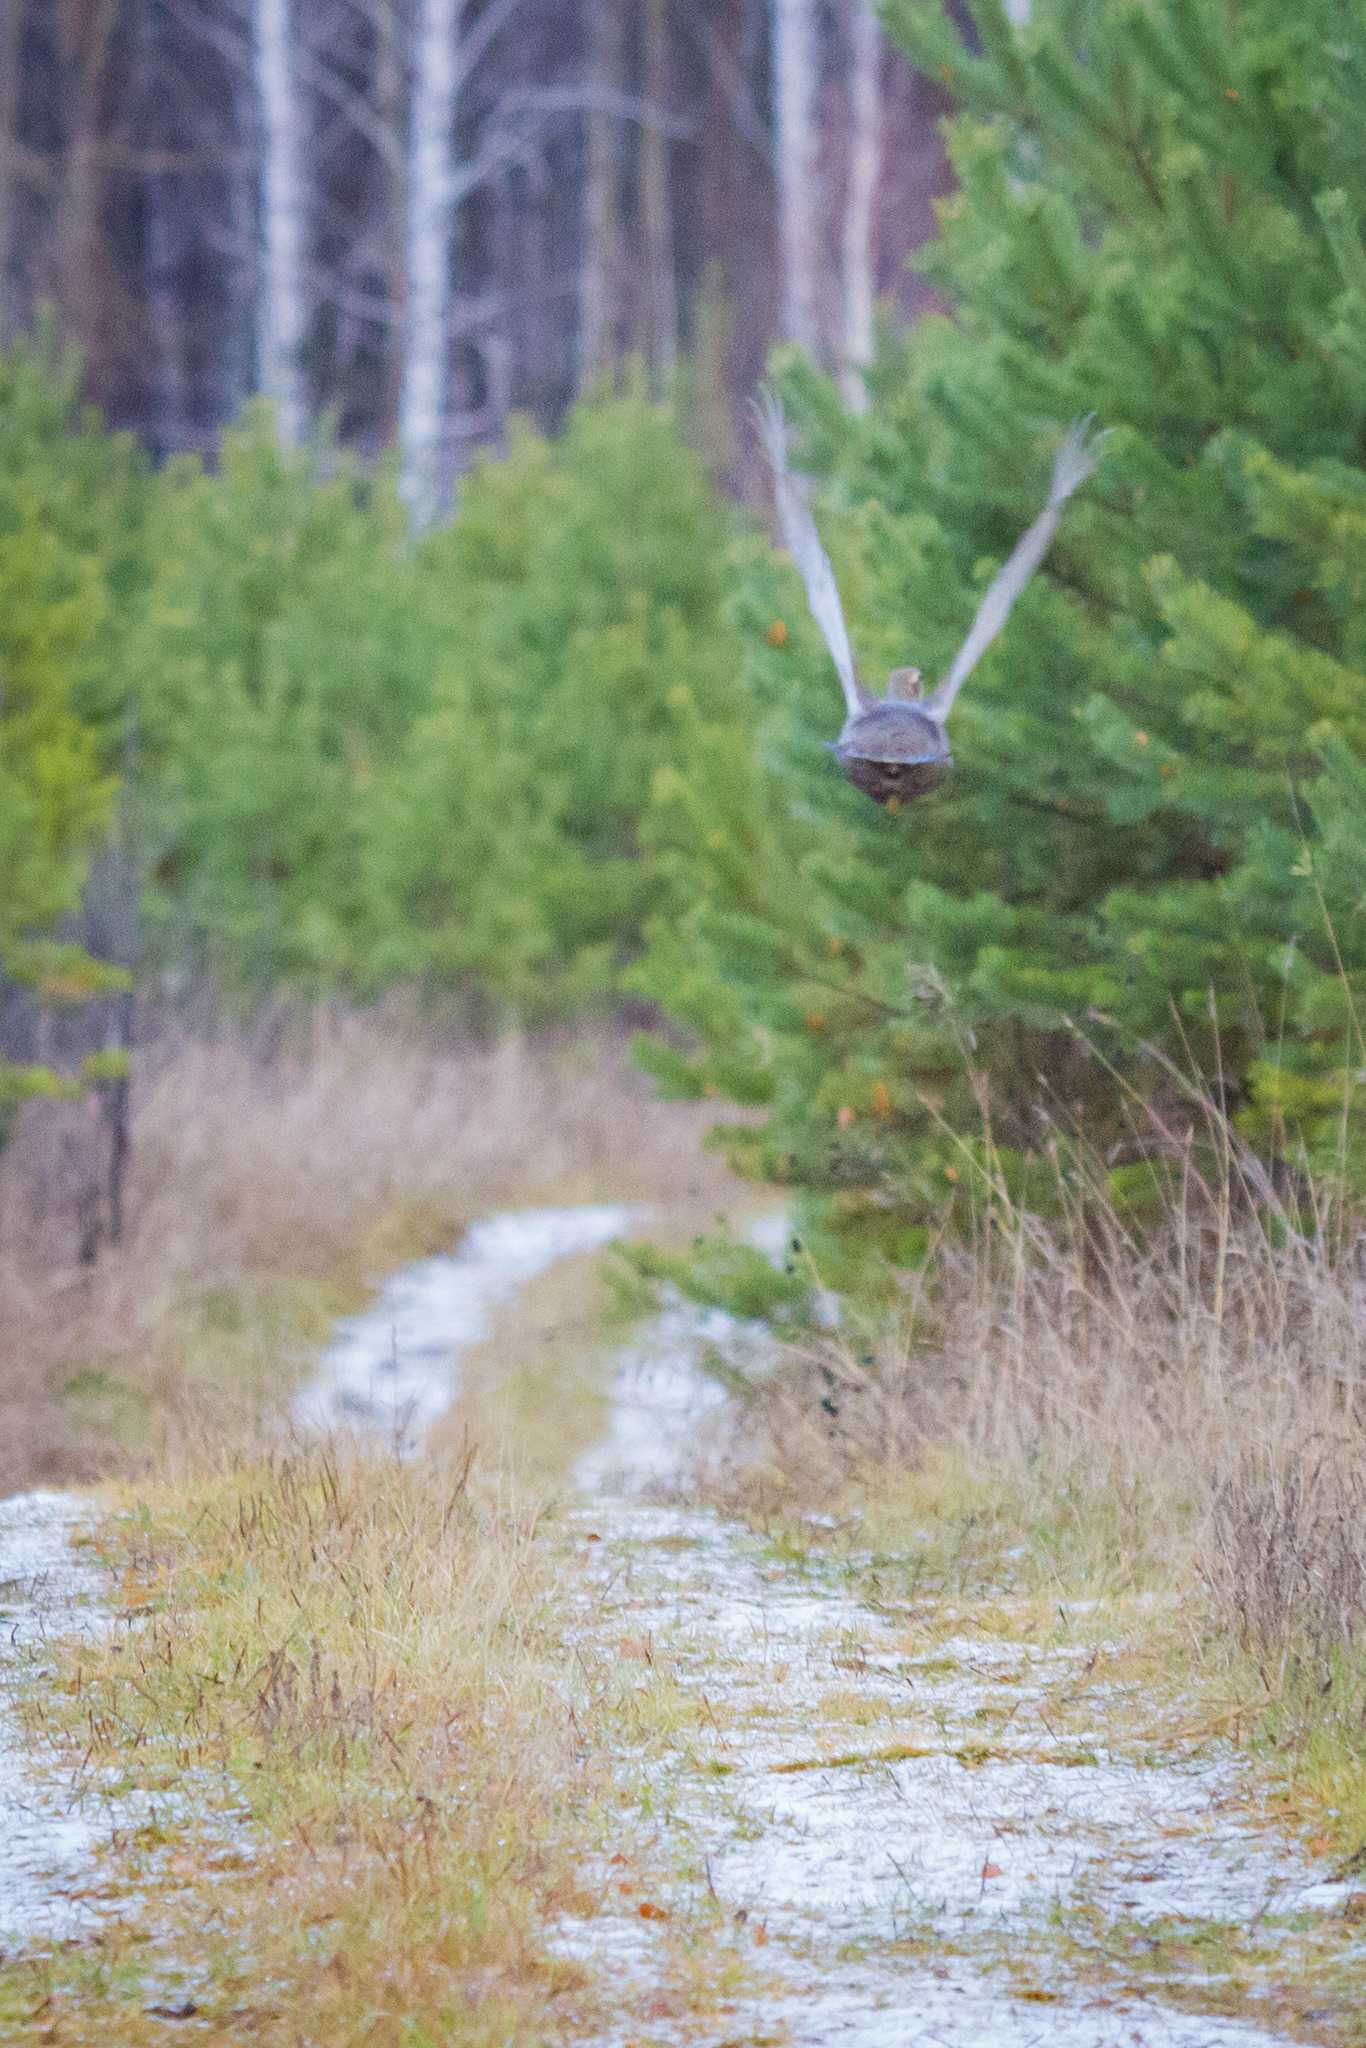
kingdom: Animalia
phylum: Chordata
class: Aves
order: Galliformes
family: Phasianidae
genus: Tetrao
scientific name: Tetrao urogallus
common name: Western capercaillie
